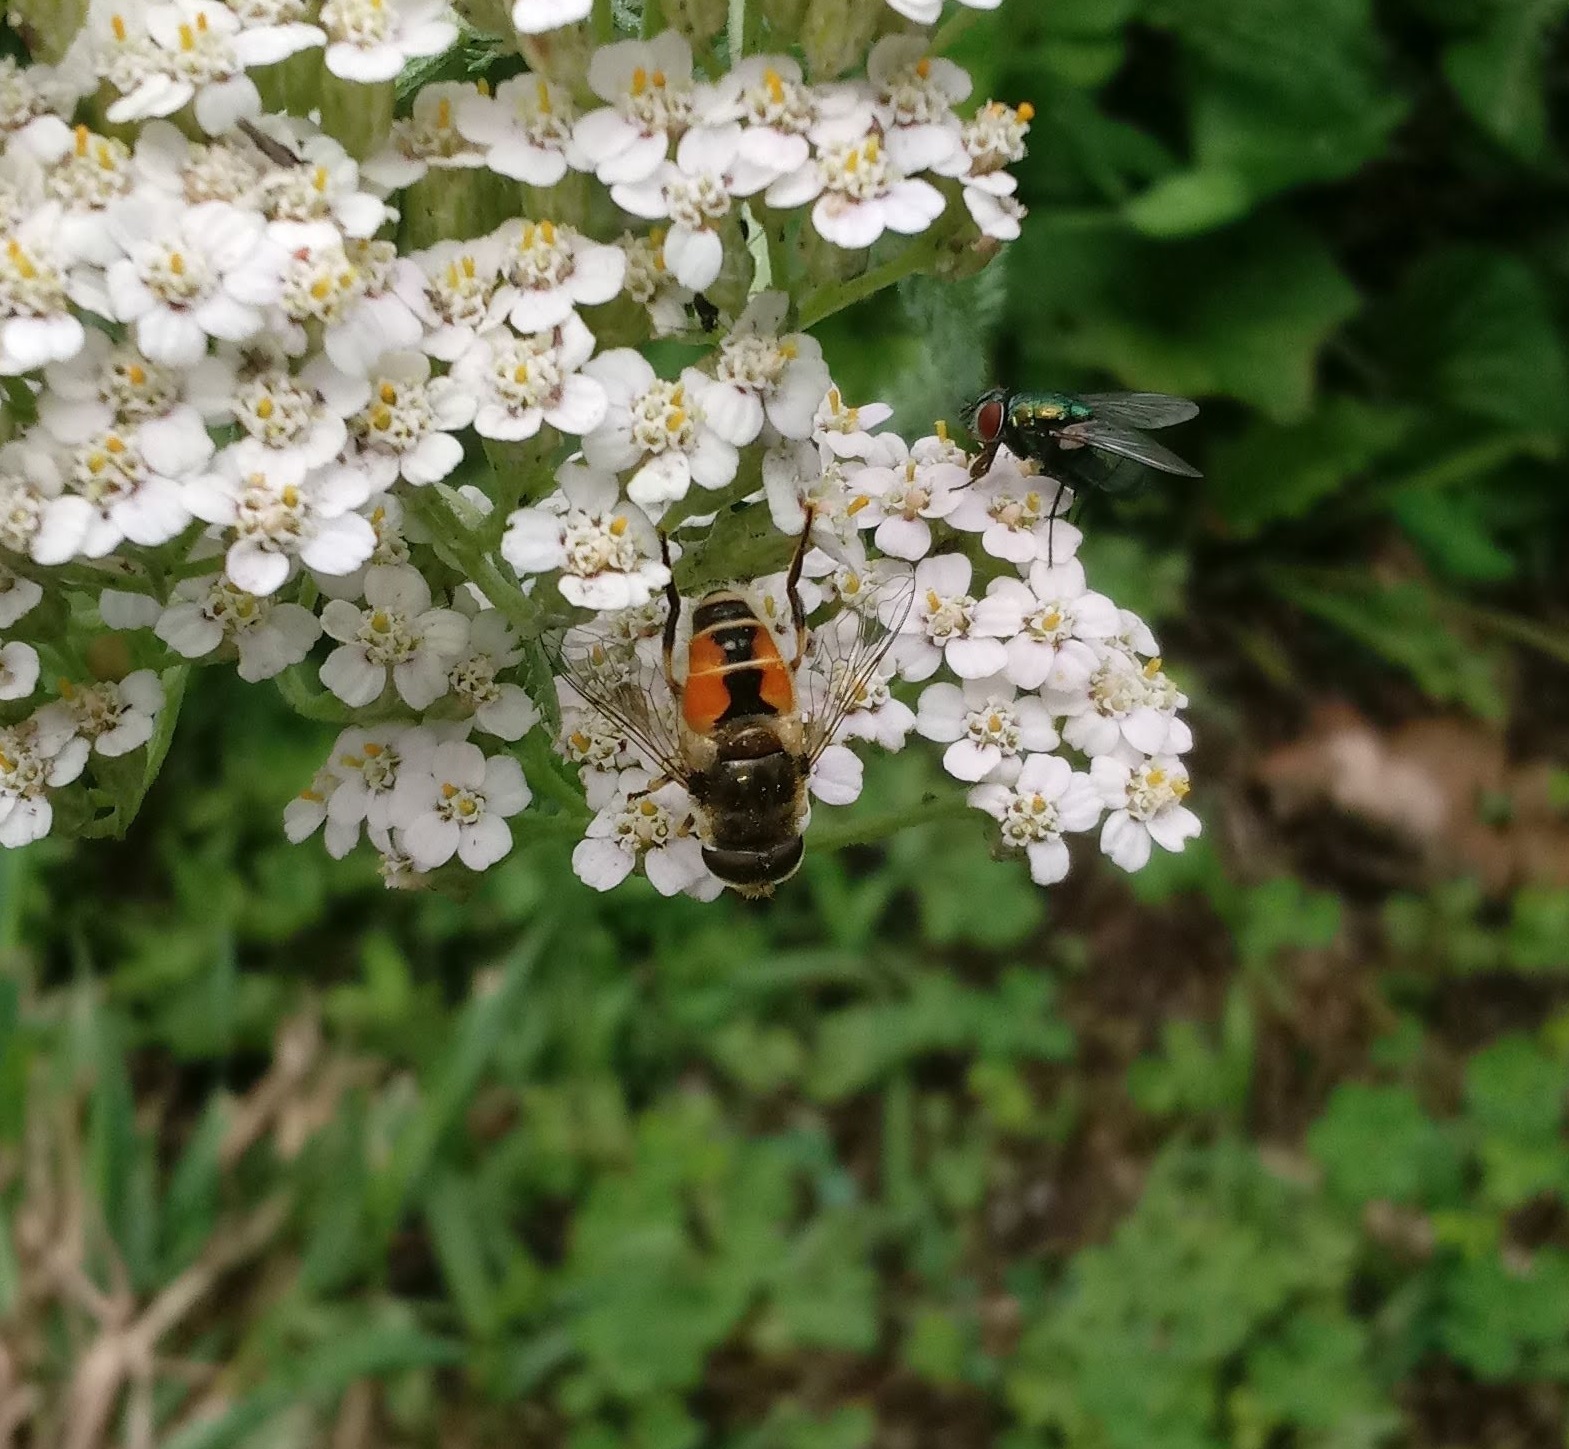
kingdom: Animalia
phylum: Arthropoda
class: Insecta
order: Diptera
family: Syrphidae
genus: Eristalis
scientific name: Eristalis arbustorum
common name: Hover fly
